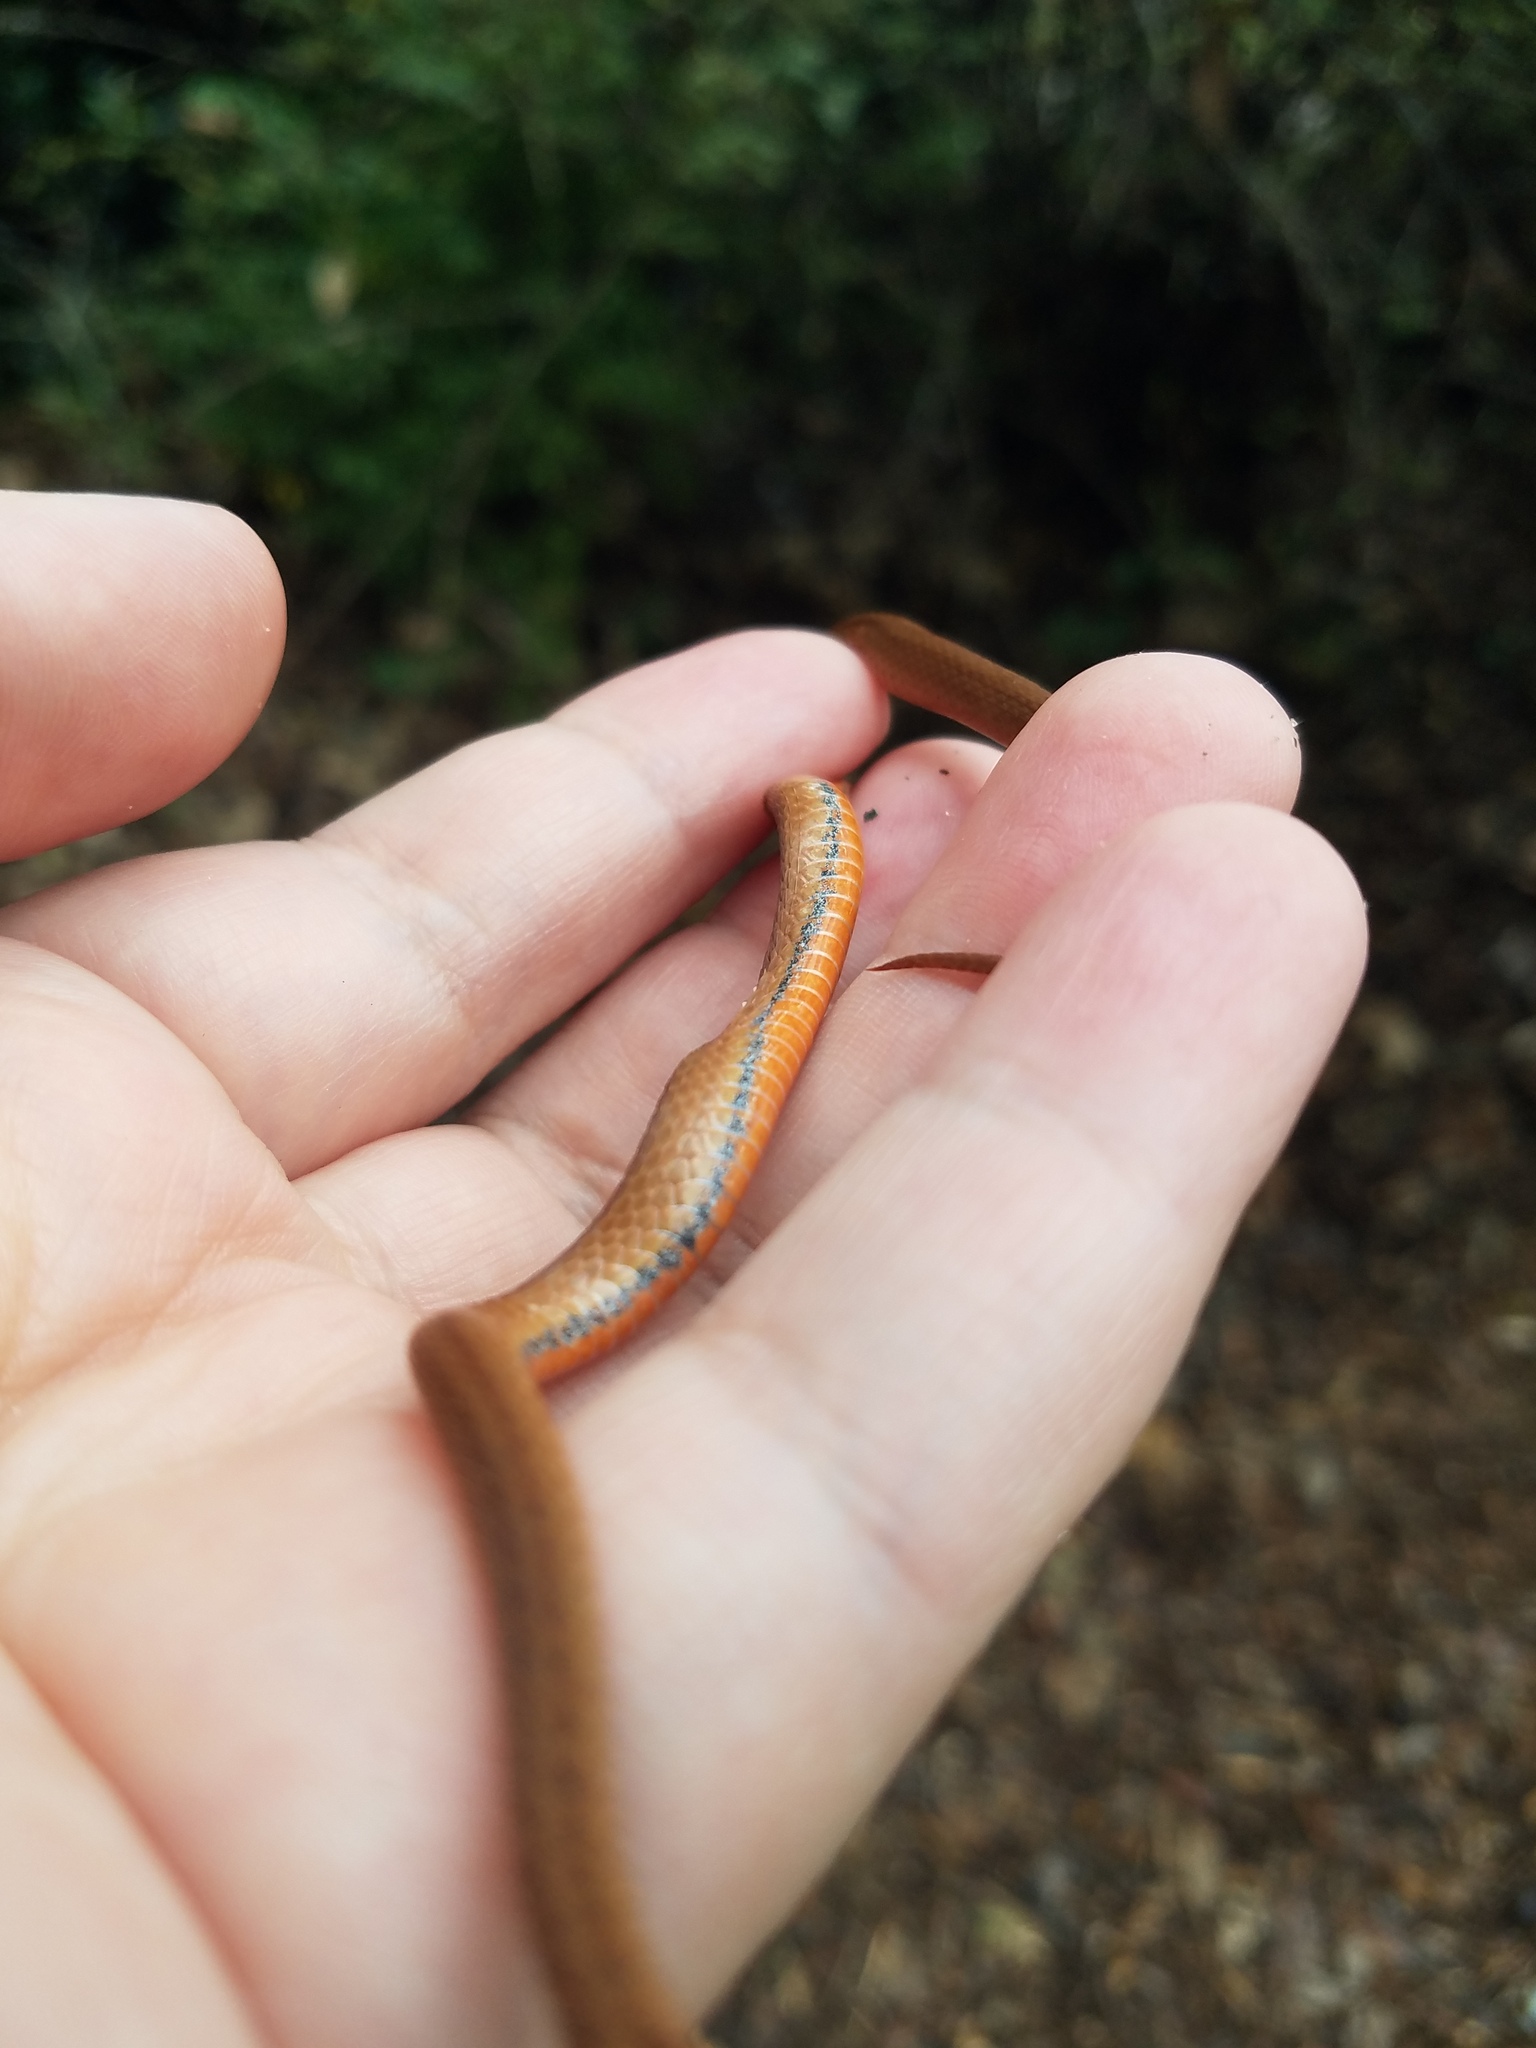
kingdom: Animalia
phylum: Chordata
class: Squamata
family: Colubridae
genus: Storeria
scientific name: Storeria occipitomaculata
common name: Redbelly snake
